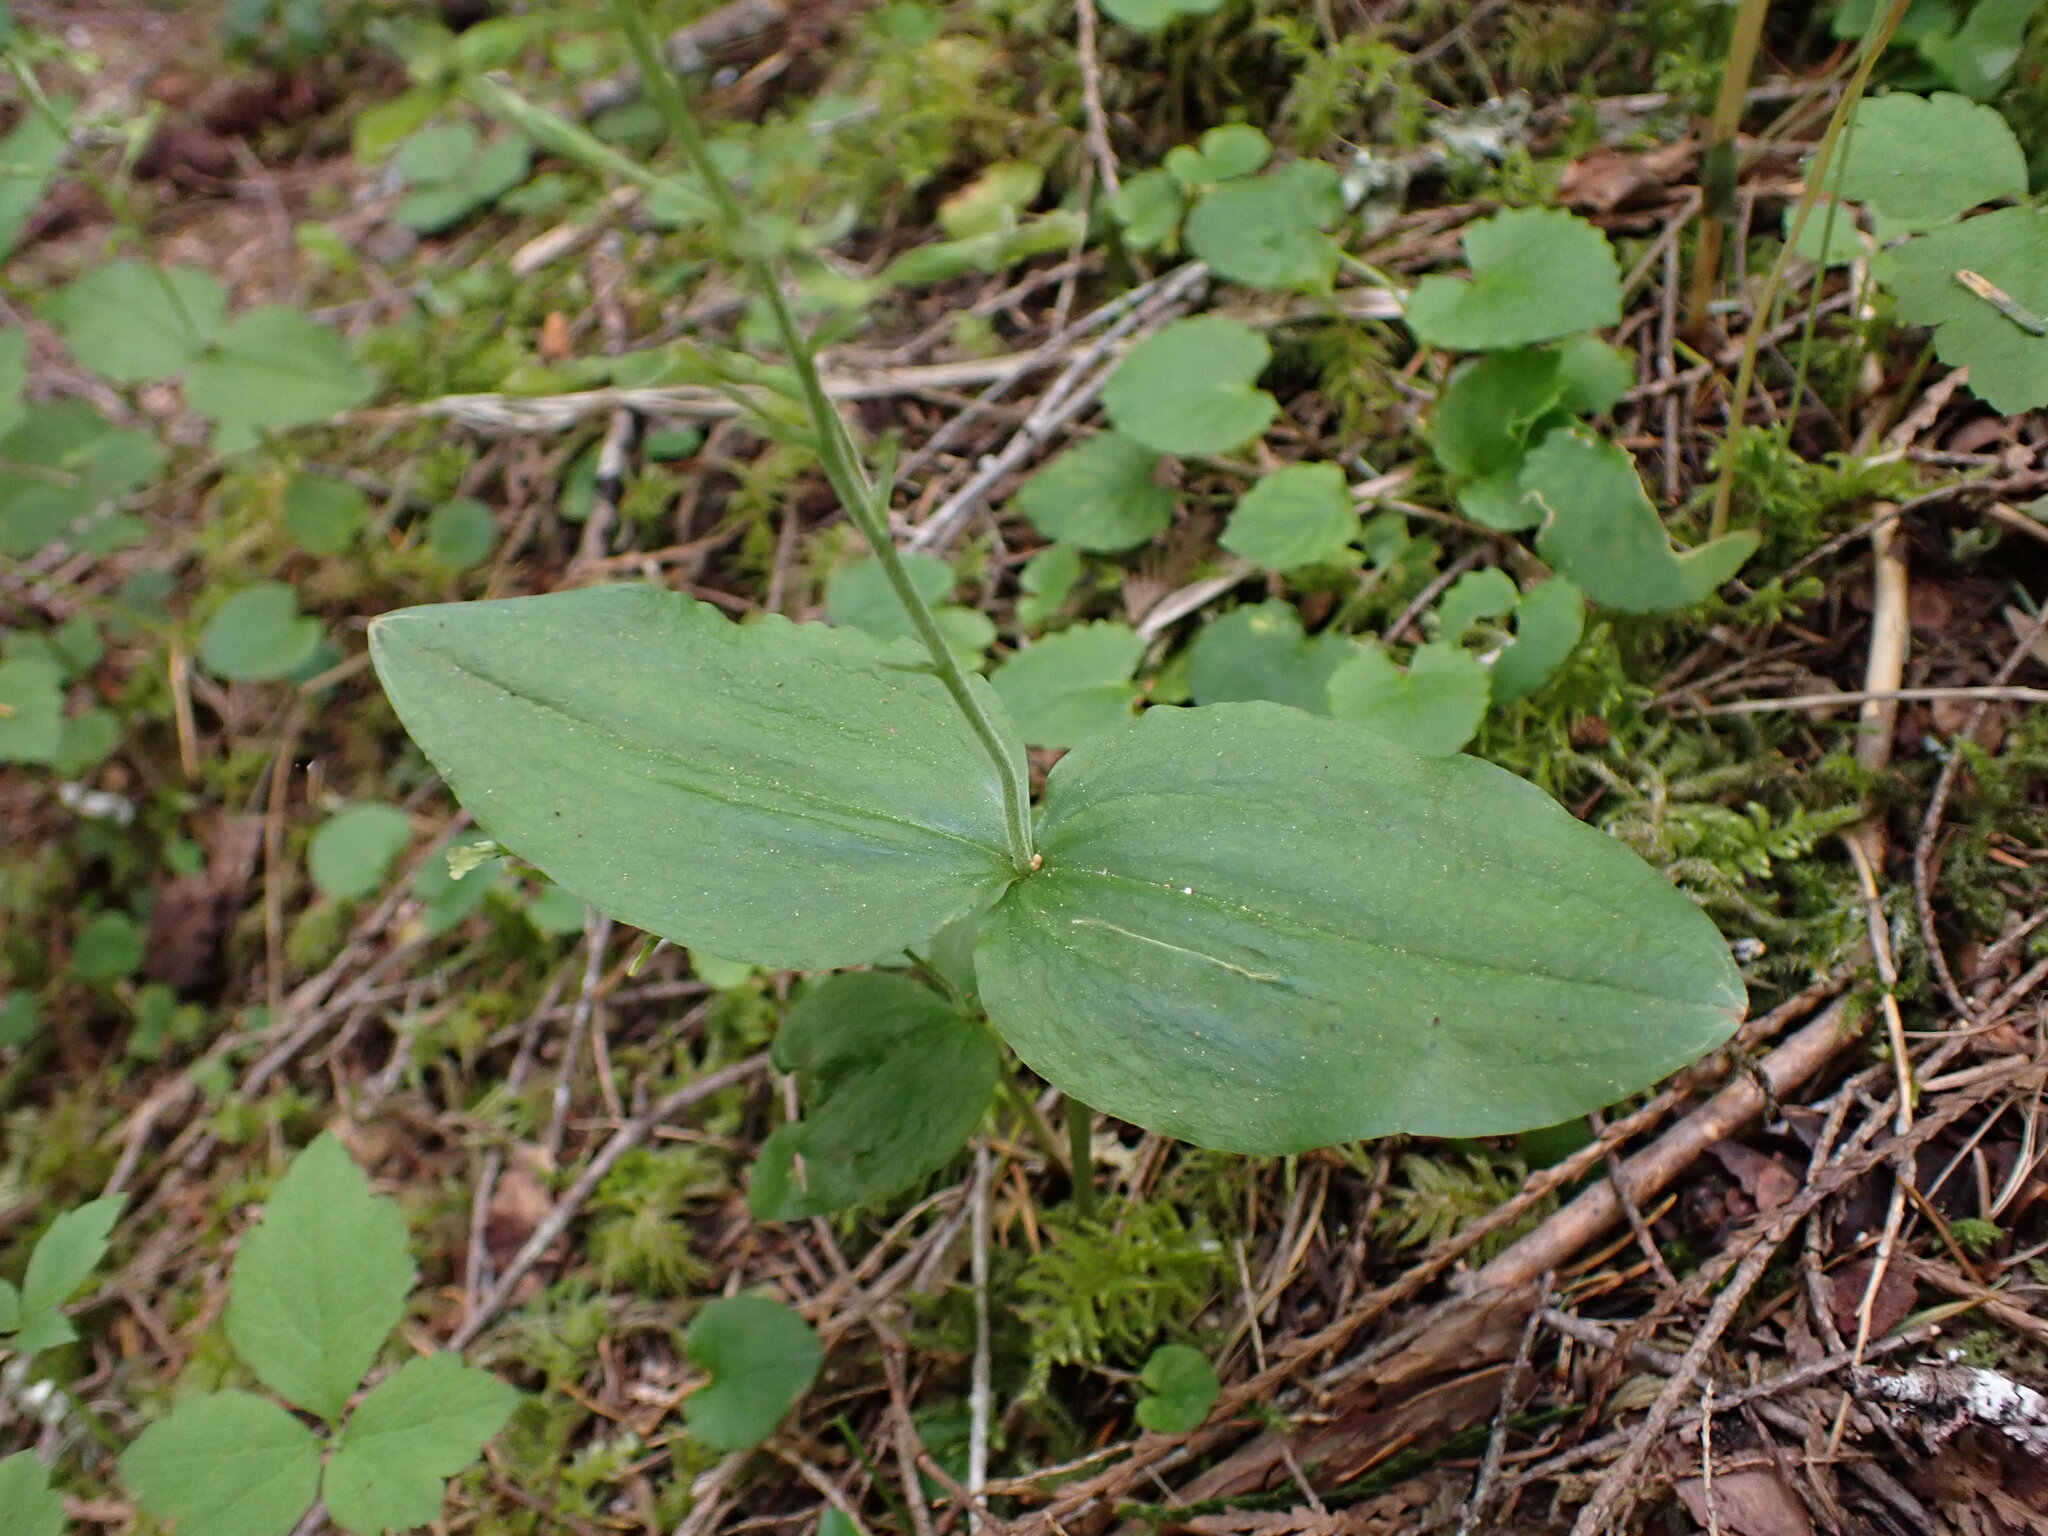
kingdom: Plantae
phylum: Tracheophyta
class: Liliopsida
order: Asparagales
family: Orchidaceae
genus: Neottia
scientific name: Neottia banksiana
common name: Northwestern twayblade
